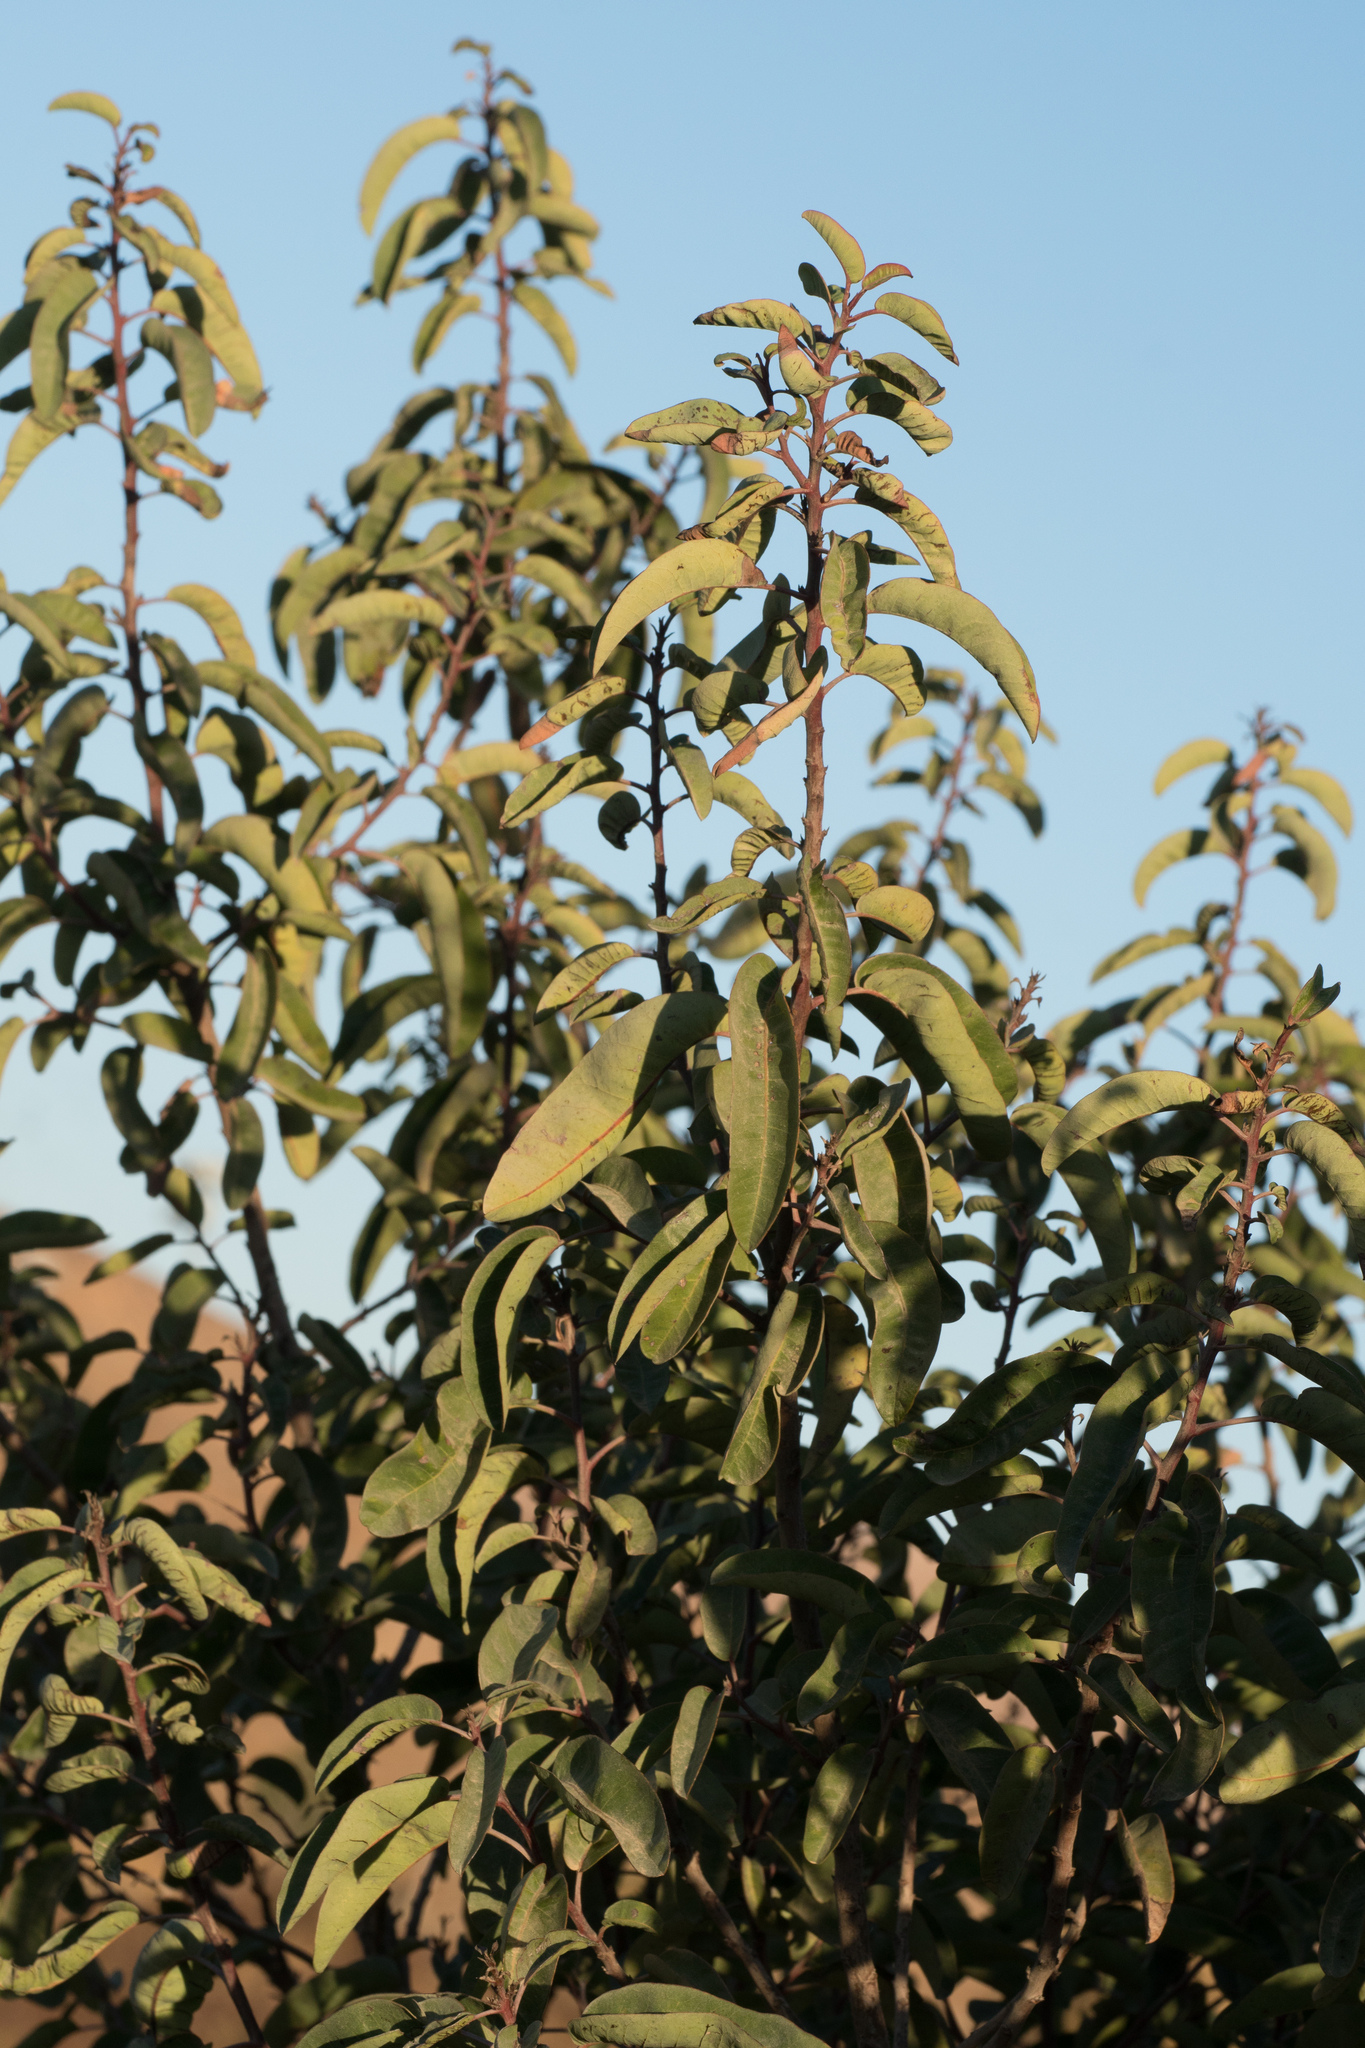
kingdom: Plantae
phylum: Tracheophyta
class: Magnoliopsida
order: Sapindales
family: Anacardiaceae
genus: Malosma
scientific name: Malosma laurina
